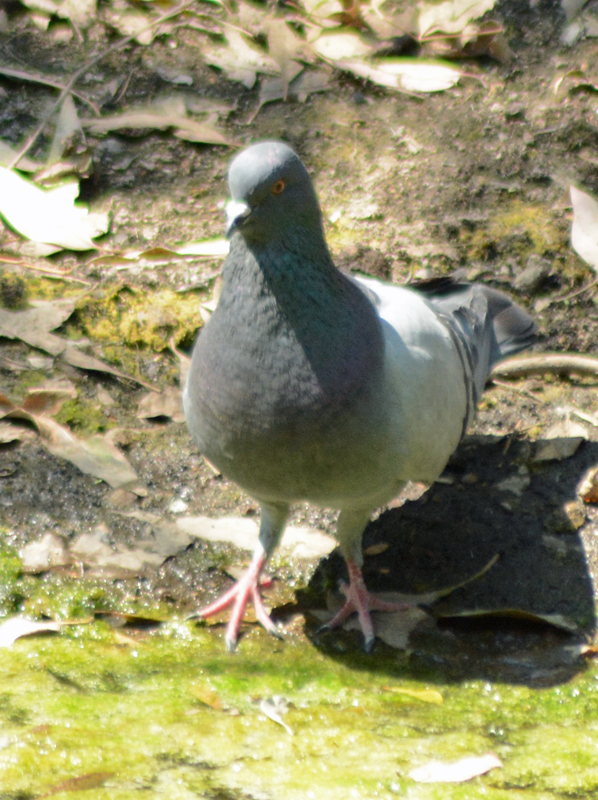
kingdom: Animalia
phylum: Chordata
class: Aves
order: Columbiformes
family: Columbidae
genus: Columba
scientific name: Columba livia
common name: Rock pigeon
